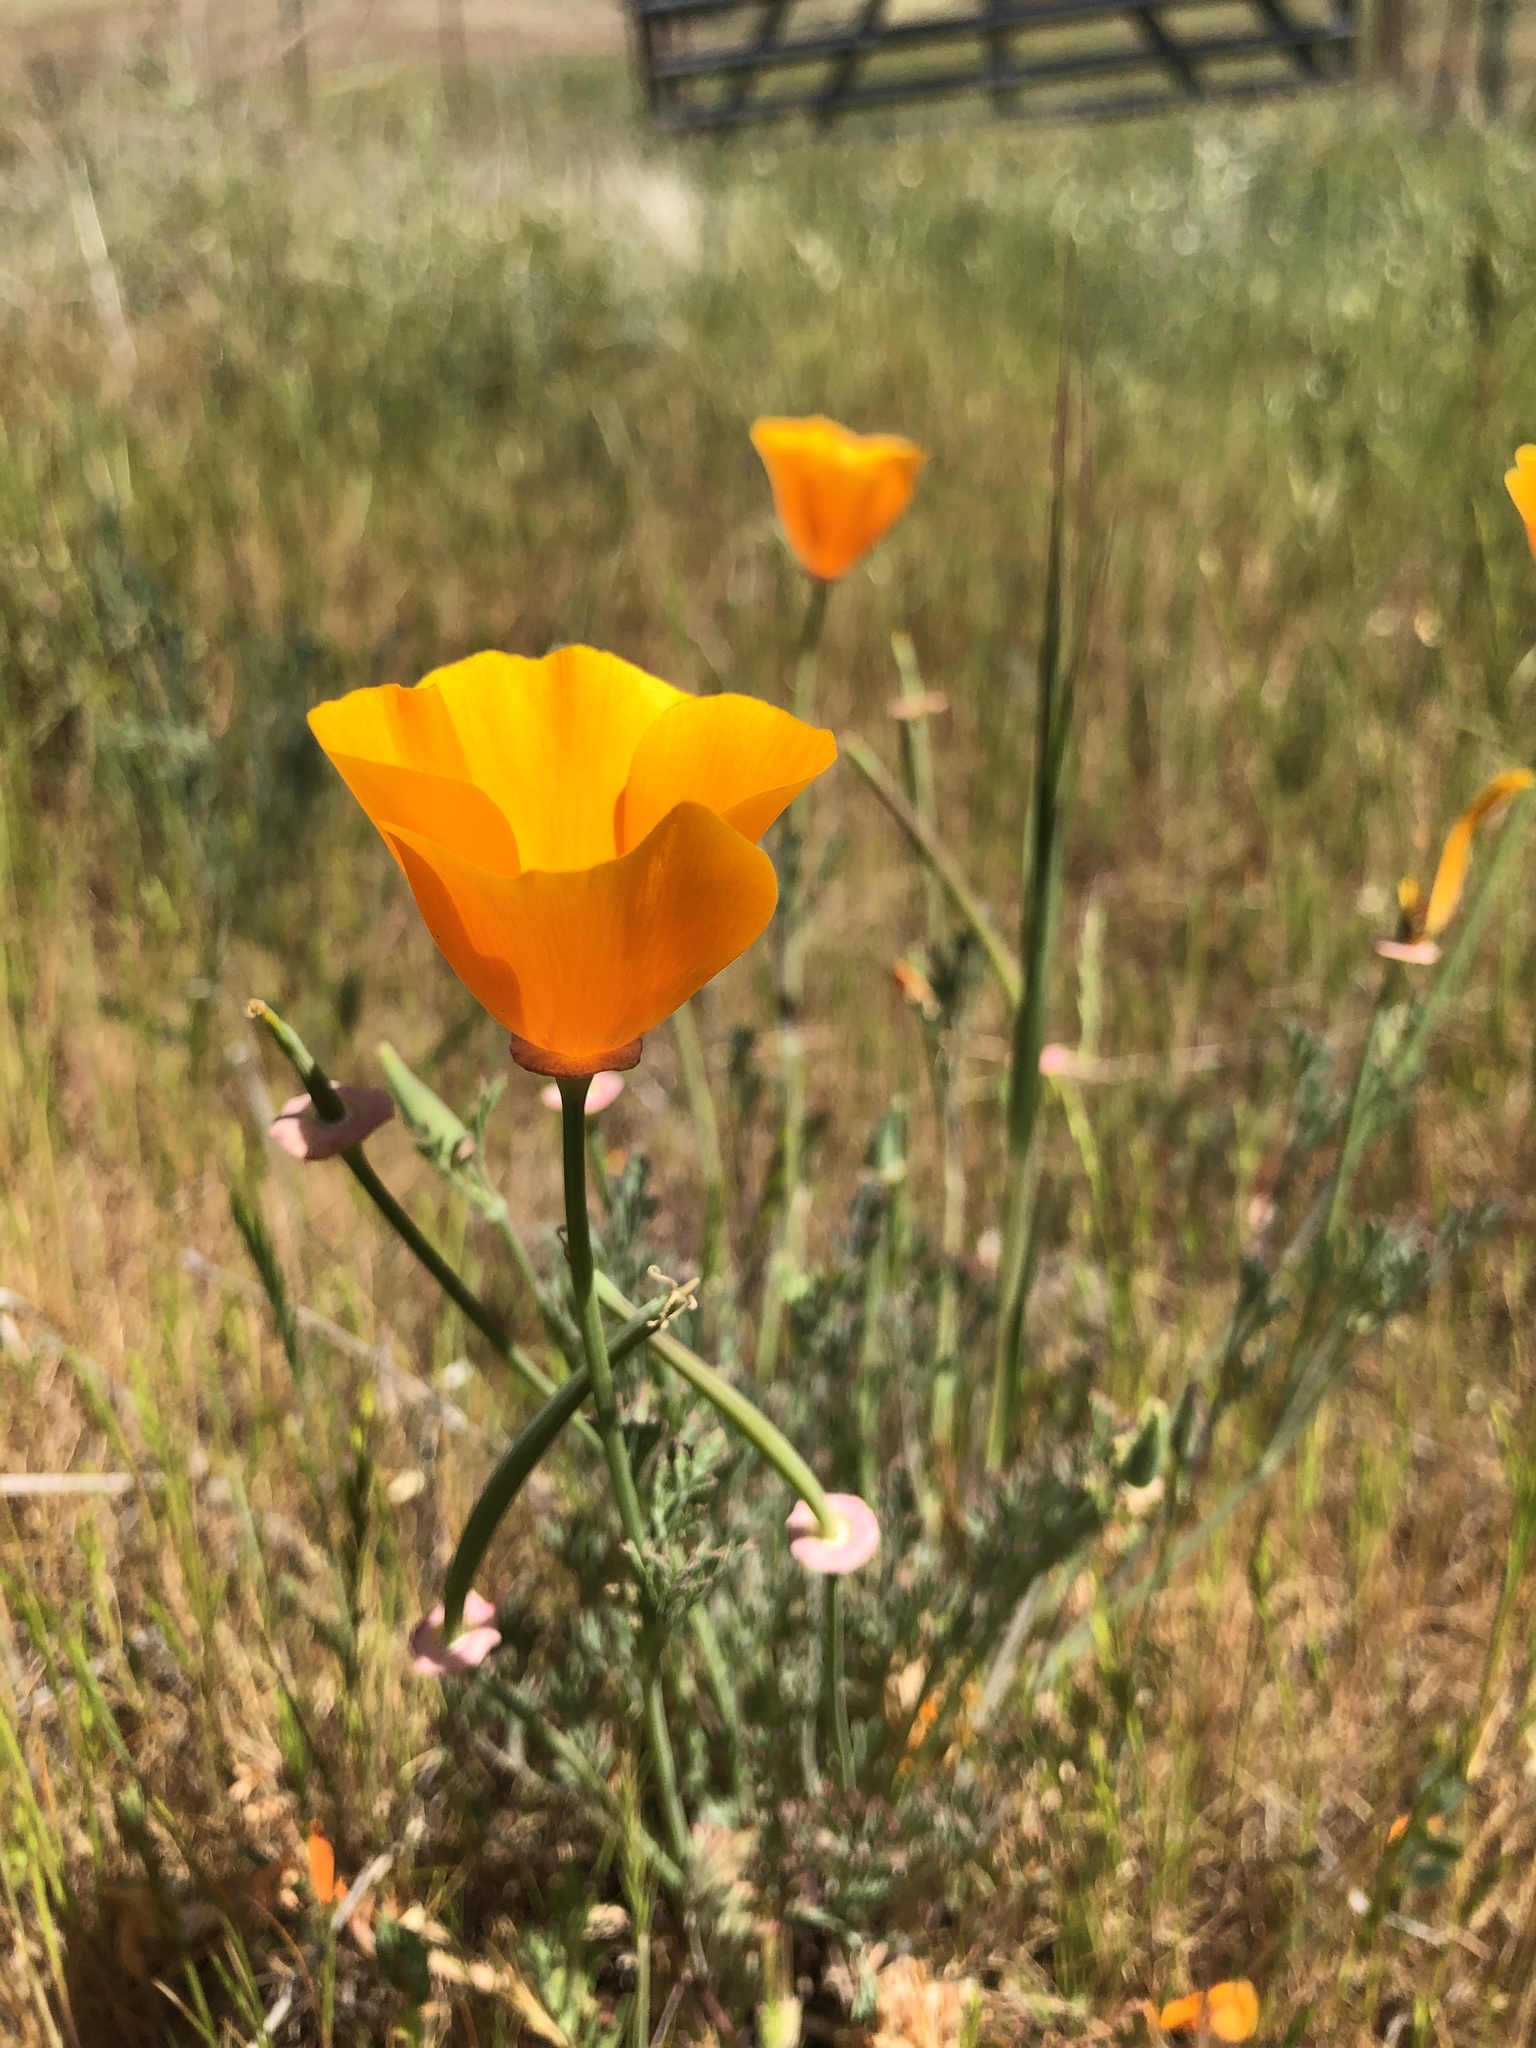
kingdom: Plantae
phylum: Tracheophyta
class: Magnoliopsida
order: Ranunculales
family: Papaveraceae
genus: Eschscholzia
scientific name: Eschscholzia californica
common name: California poppy
